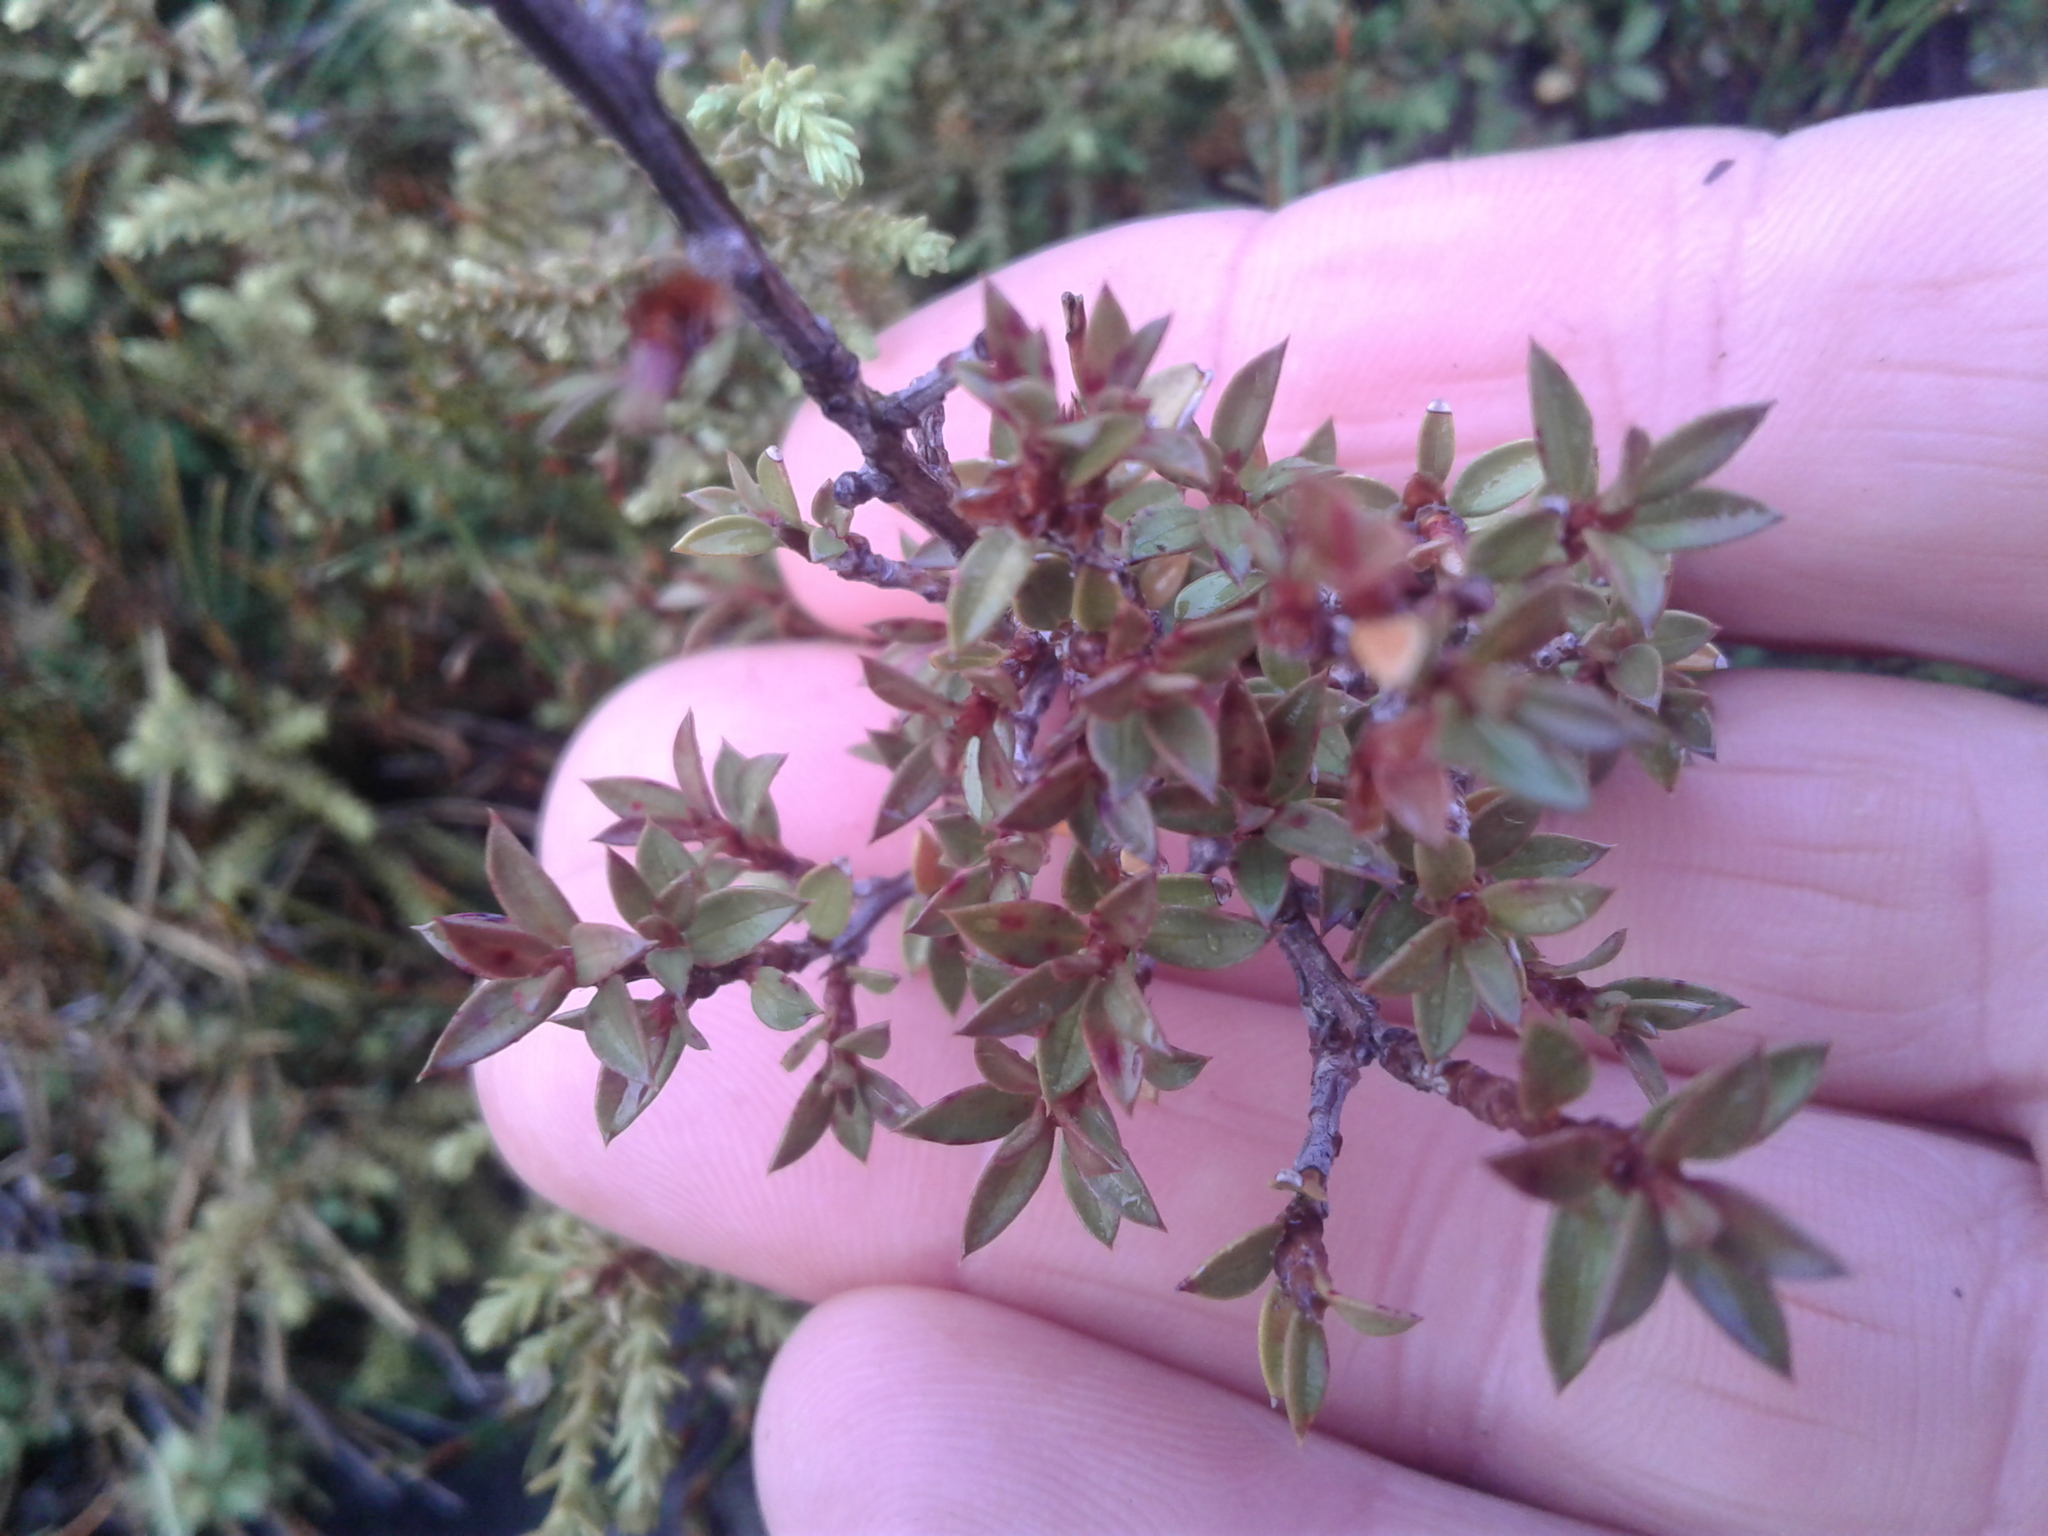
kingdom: Plantae
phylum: Tracheophyta
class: Magnoliopsida
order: Myrtales
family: Myrtaceae
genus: Leptospermum
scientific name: Leptospermum scoparium
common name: Broom tea-tree
